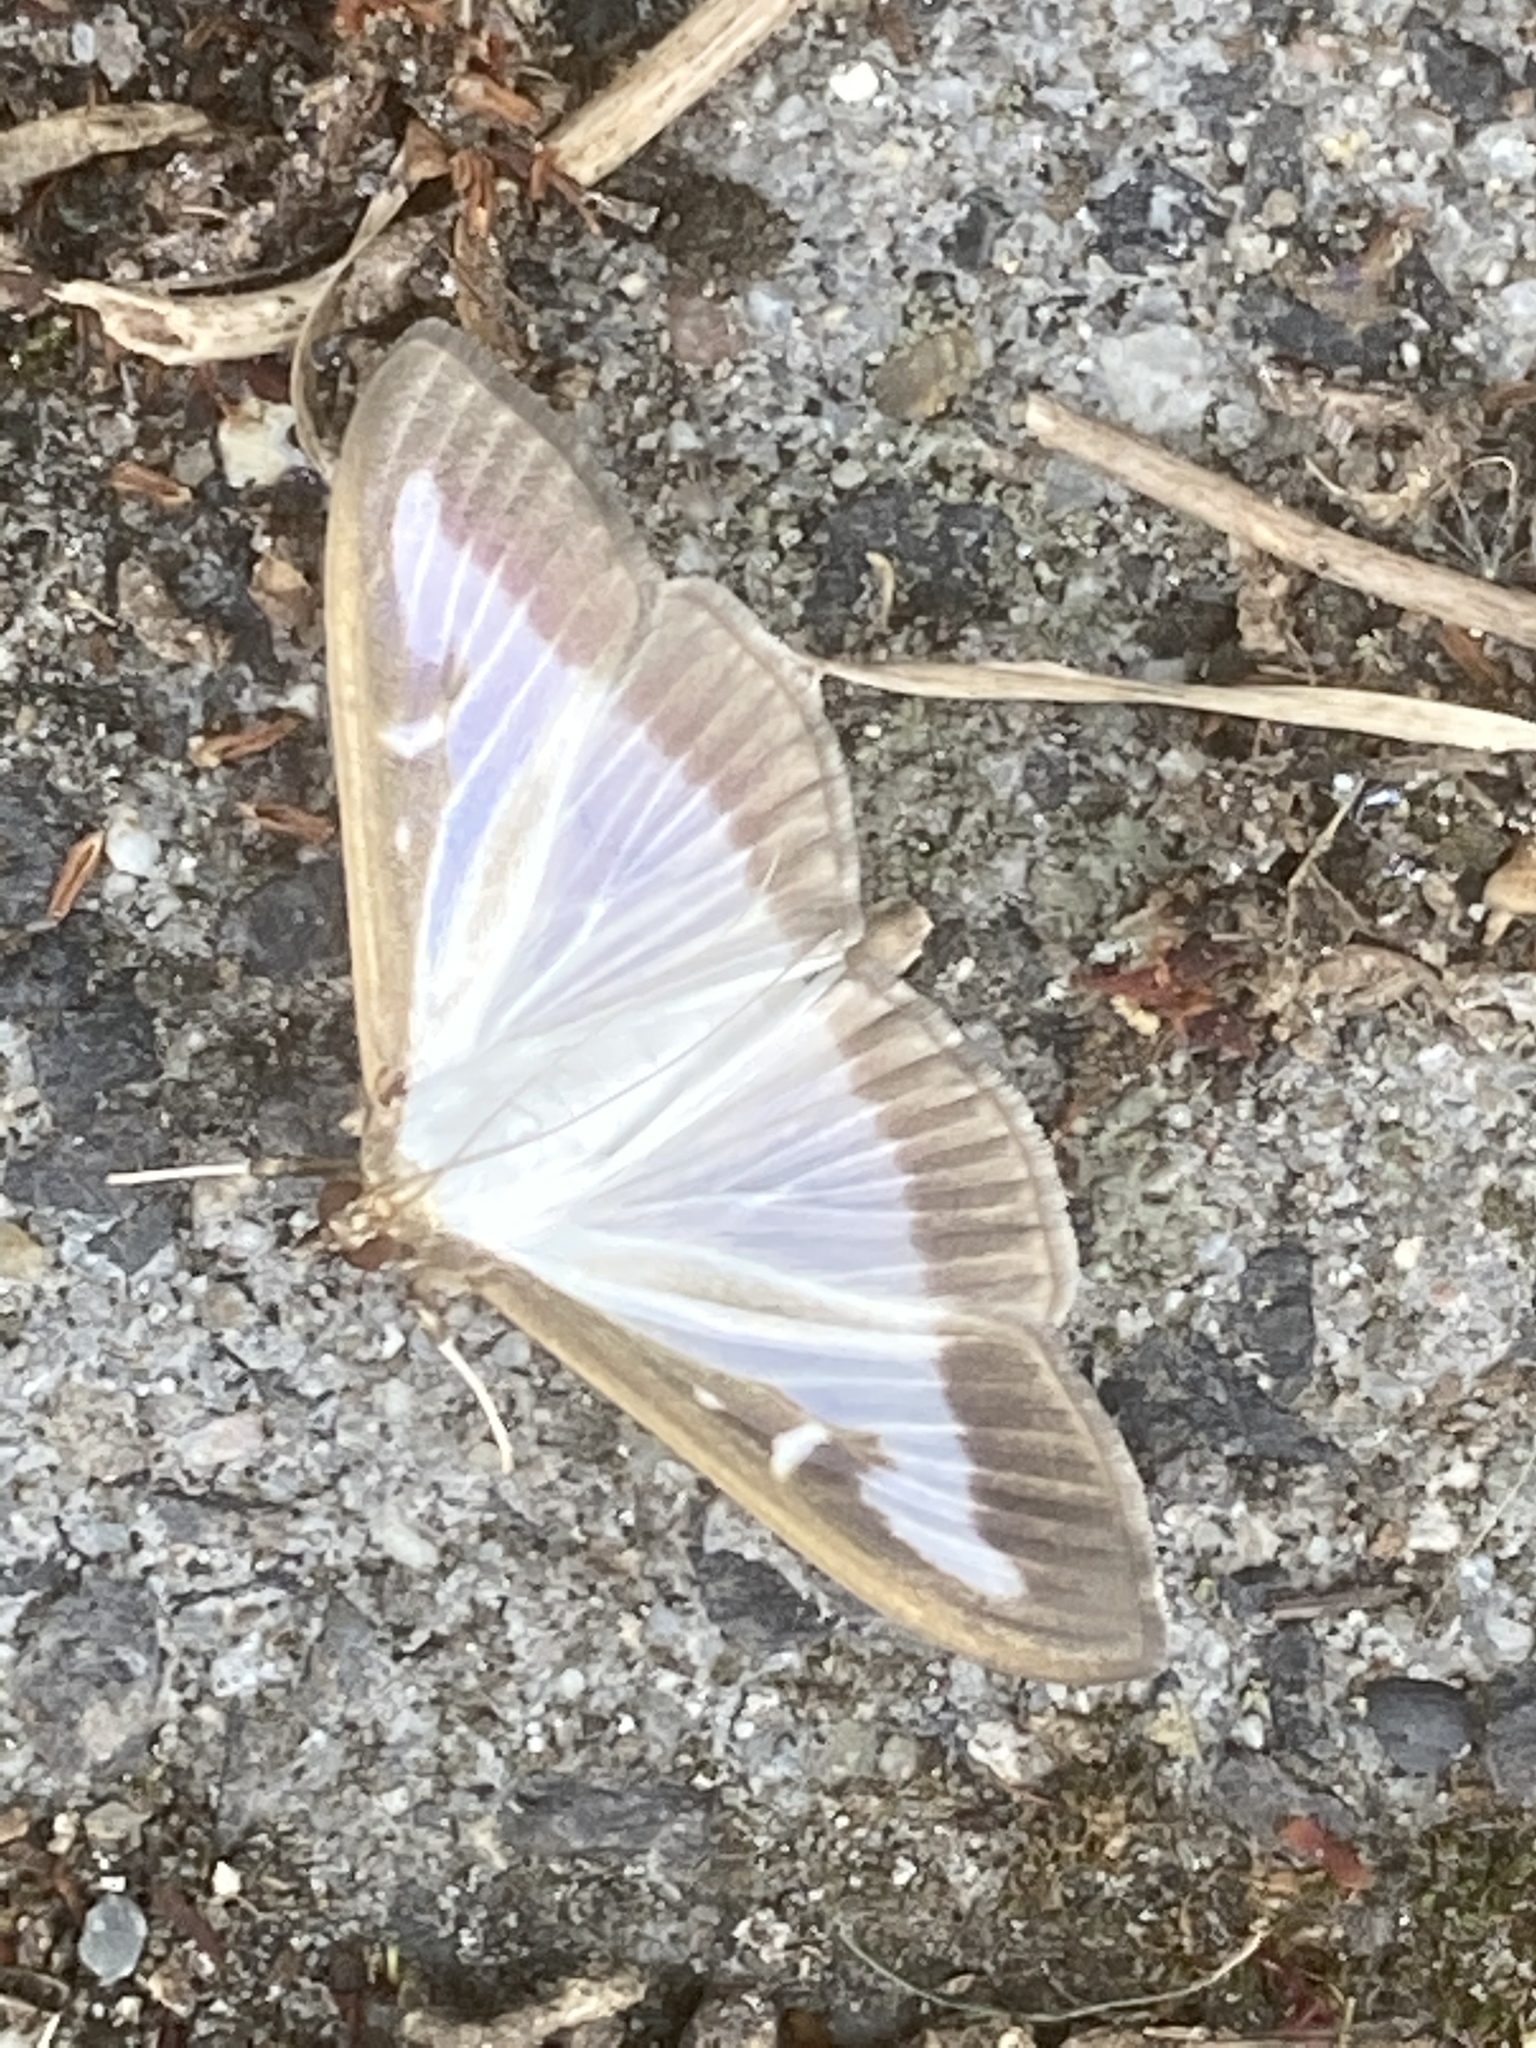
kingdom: Animalia
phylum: Arthropoda
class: Insecta
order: Lepidoptera
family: Crambidae
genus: Cydalima
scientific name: Cydalima perspectalis
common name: Box tree moth
